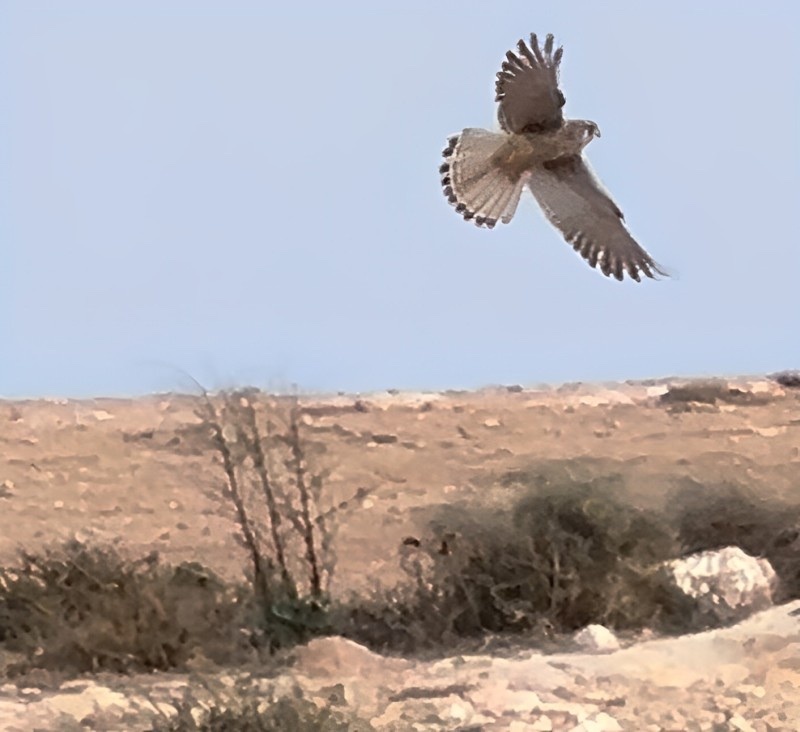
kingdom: Animalia
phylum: Chordata
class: Aves
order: Falconiformes
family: Falconidae
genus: Falco
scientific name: Falco tinnunculus
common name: Common kestrel
